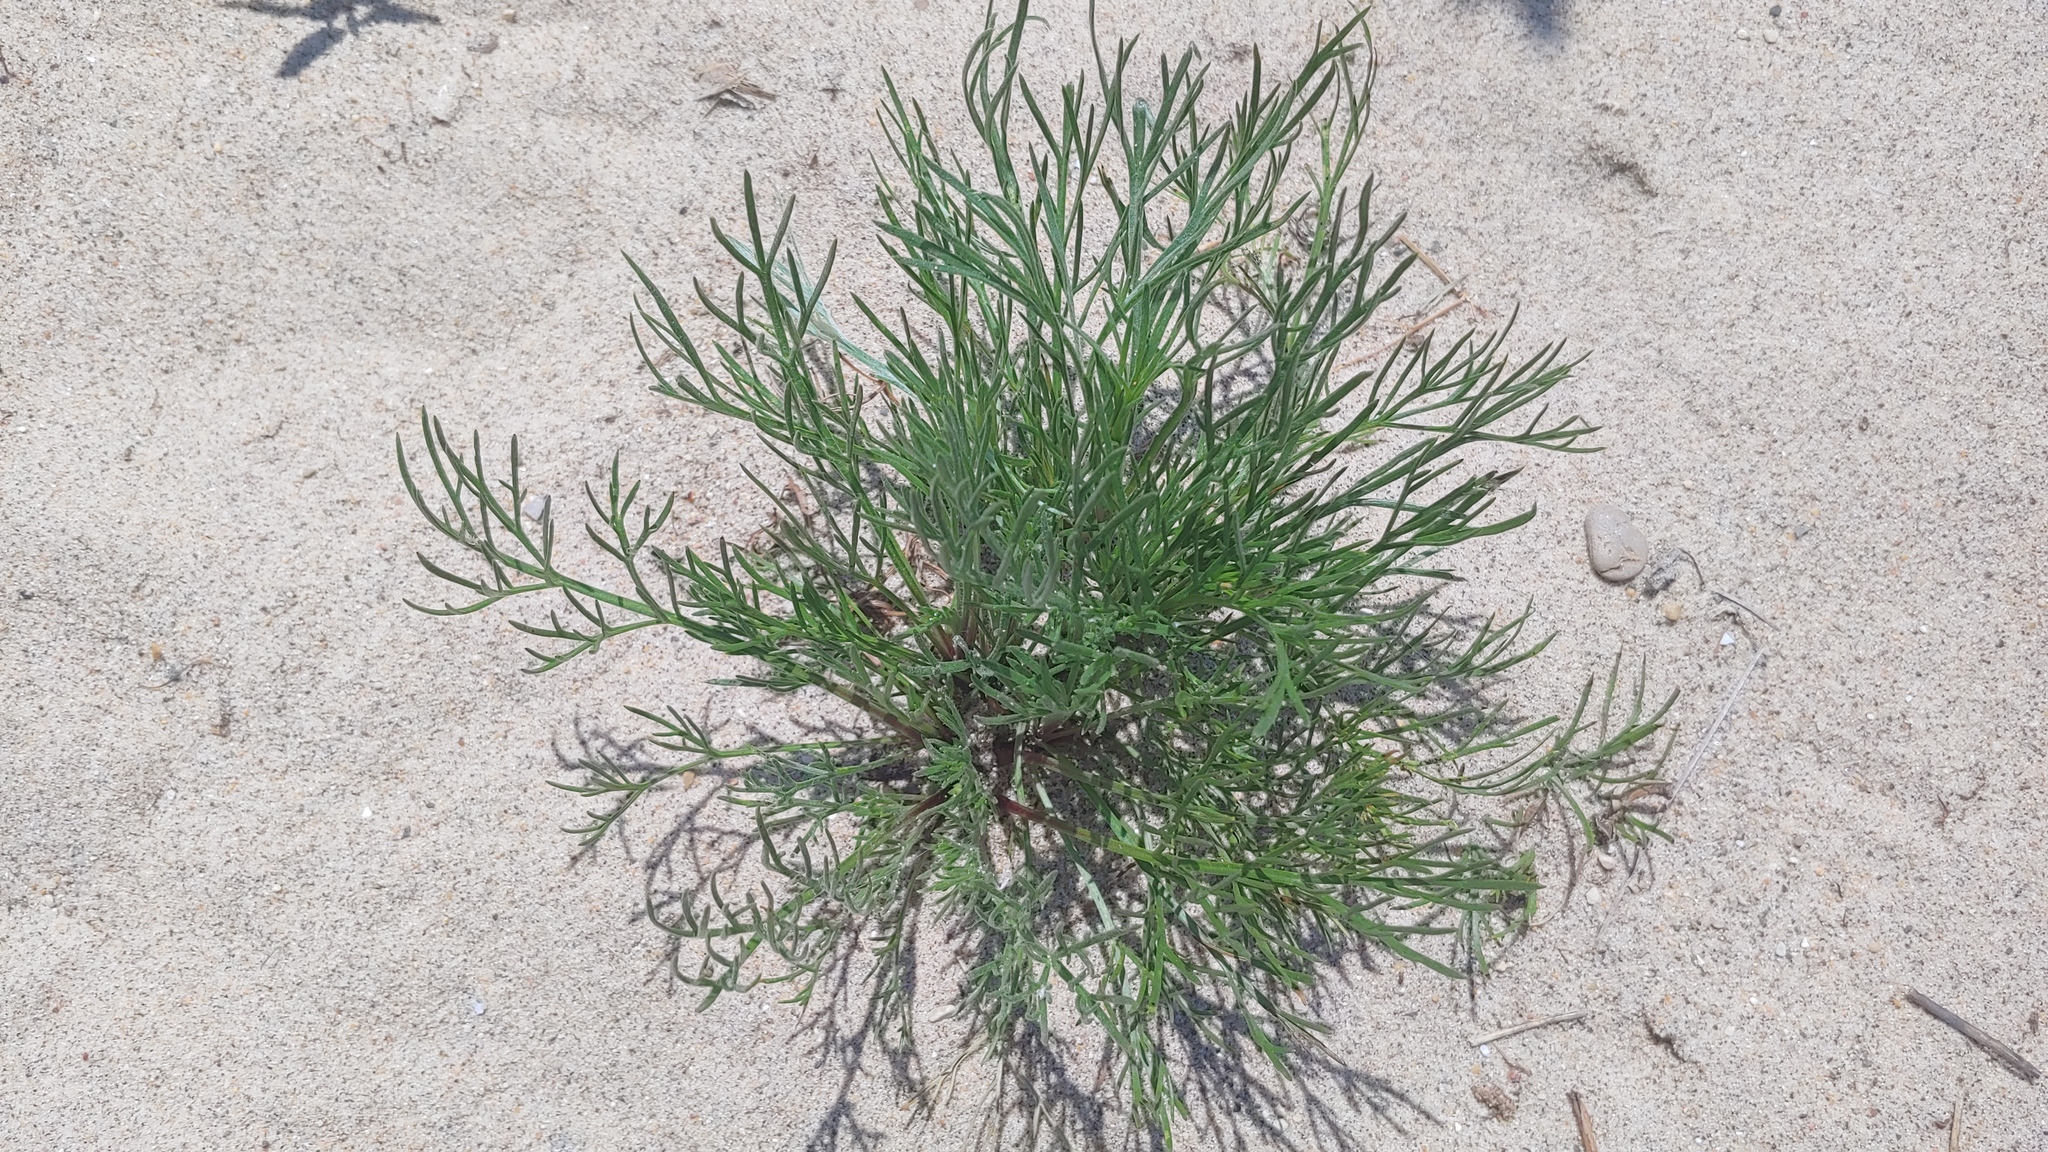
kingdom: Plantae
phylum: Tracheophyta
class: Magnoliopsida
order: Asterales
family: Asteraceae
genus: Artemisia
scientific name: Artemisia campestris
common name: Field wormwood
